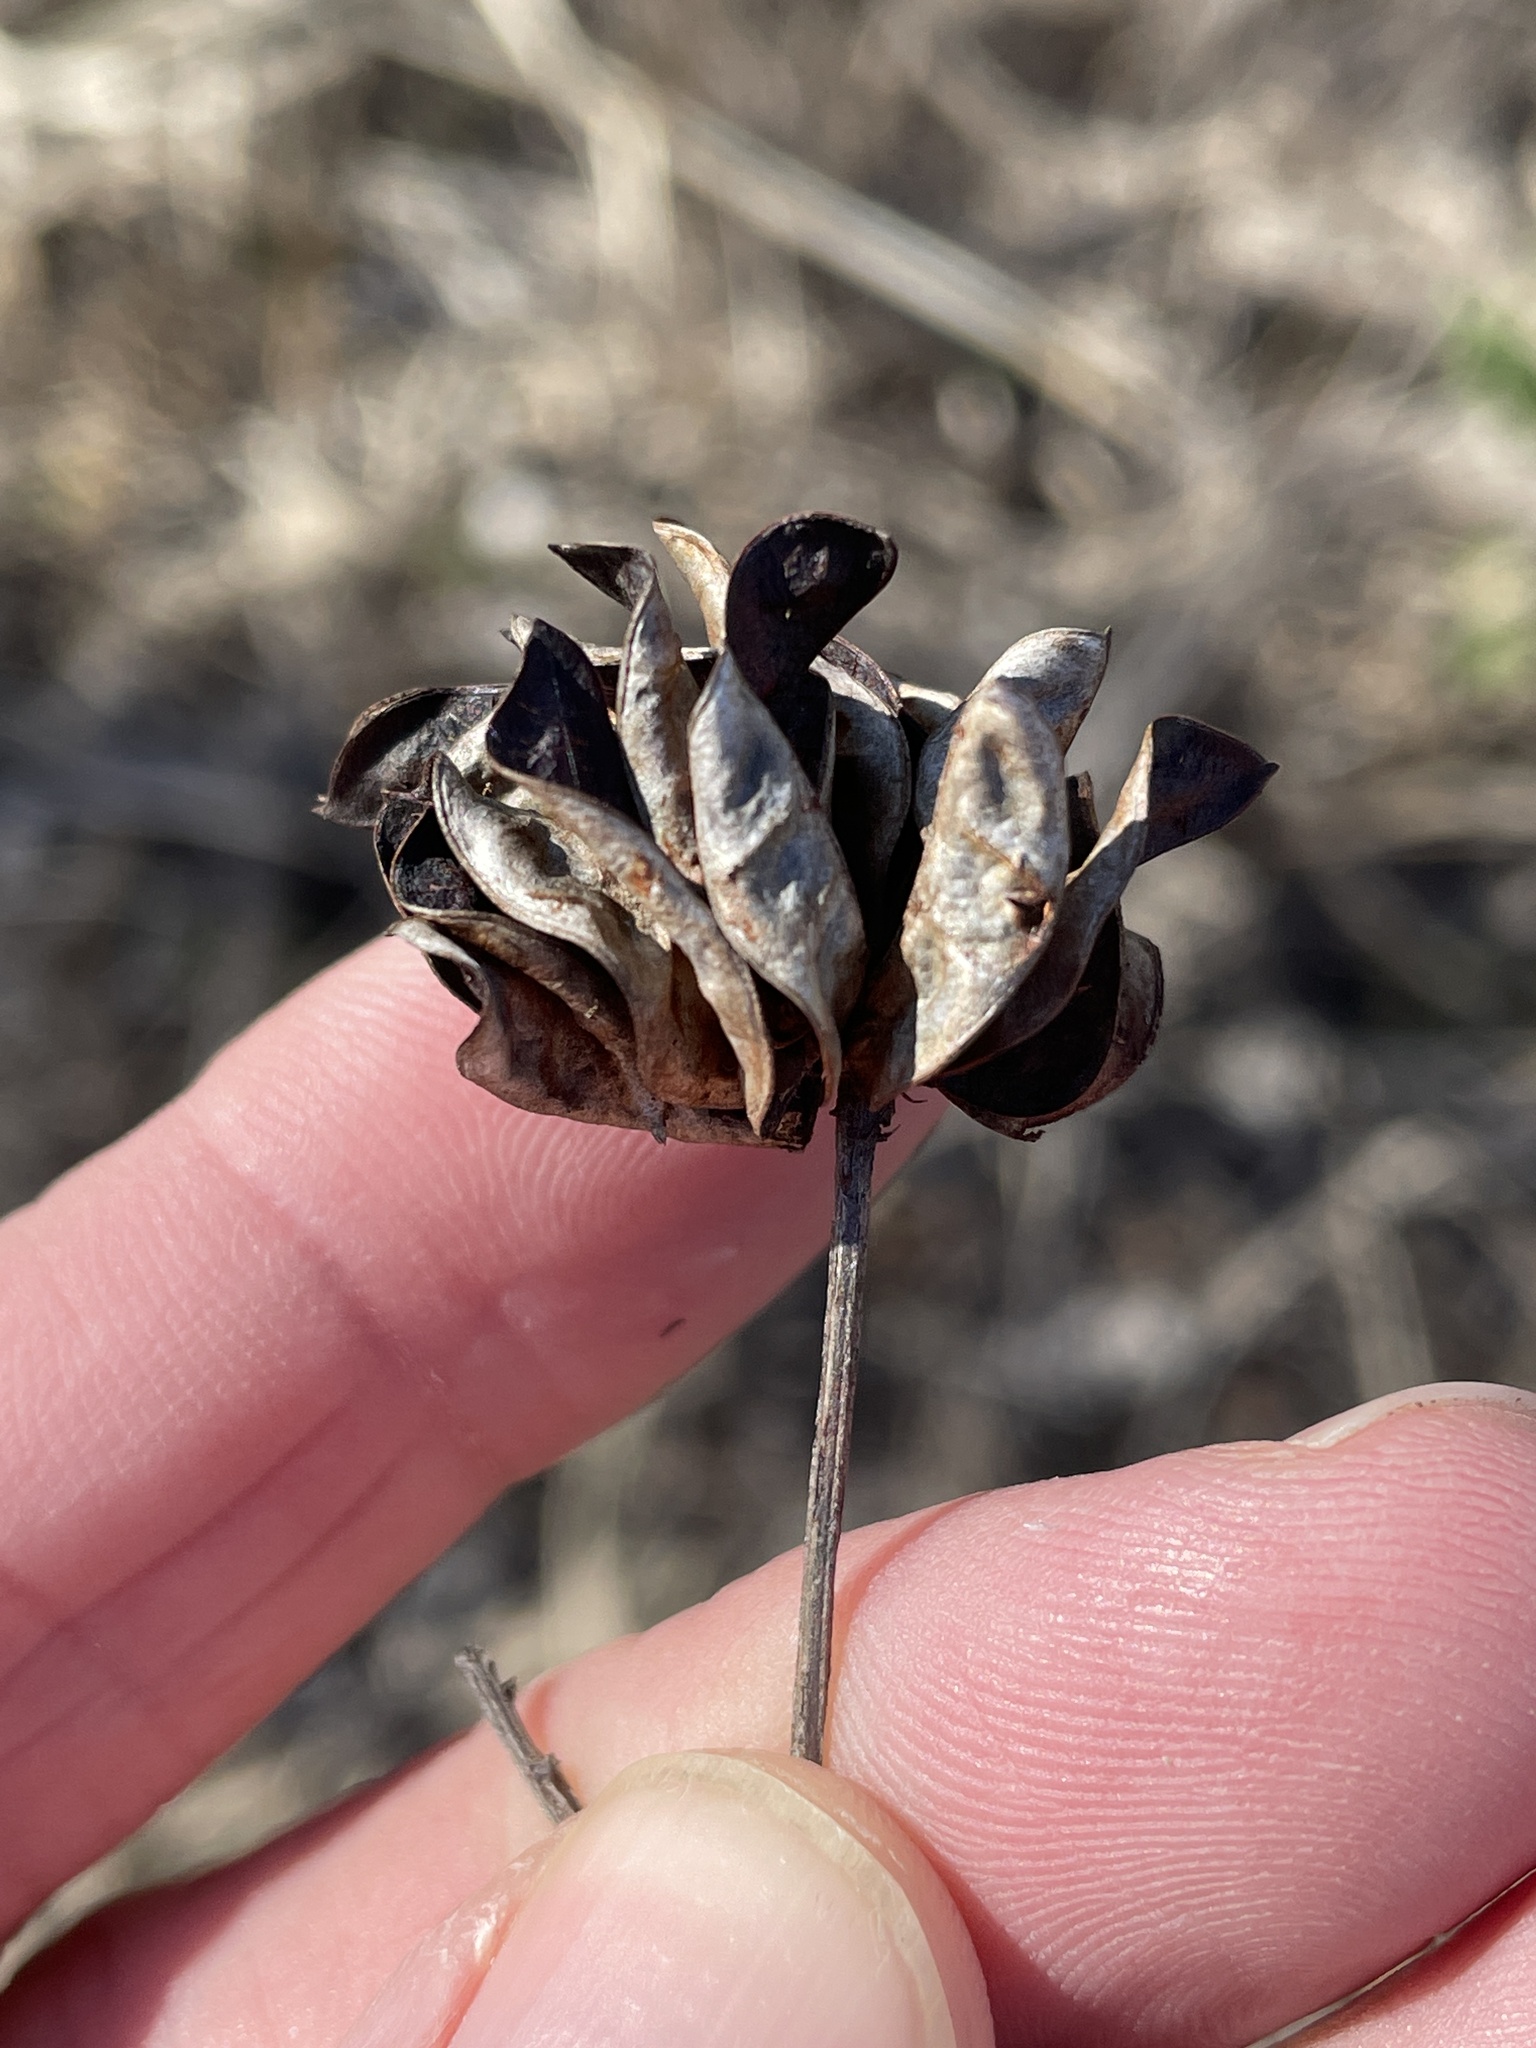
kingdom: Plantae
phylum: Tracheophyta
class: Magnoliopsida
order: Fabales
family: Fabaceae
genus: Desmanthus
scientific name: Desmanthus illinoensis
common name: Illinois bundle-flower
